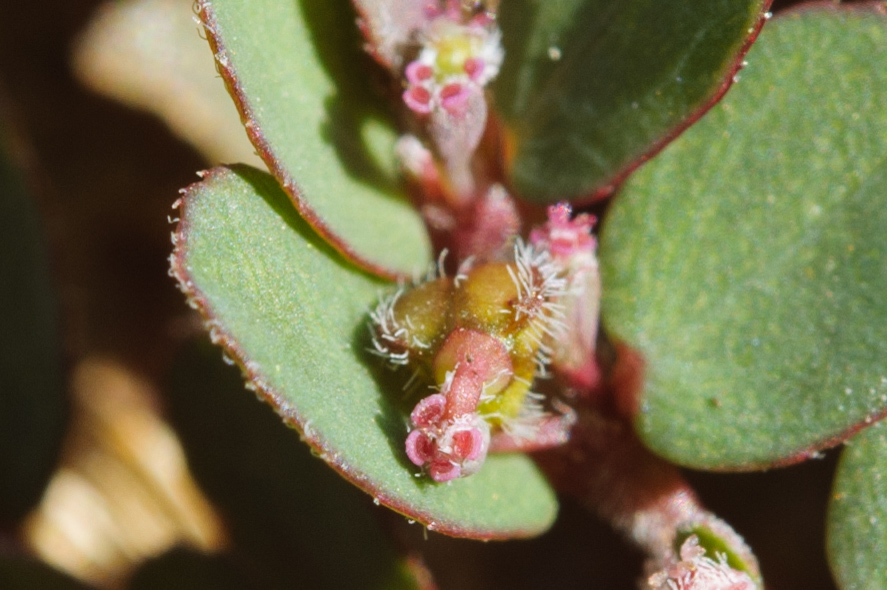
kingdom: Plantae
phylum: Tracheophyta
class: Magnoliopsida
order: Malpighiales
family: Euphorbiaceae
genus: Euphorbia
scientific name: Euphorbia prostrata
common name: Prostrate sandmat
